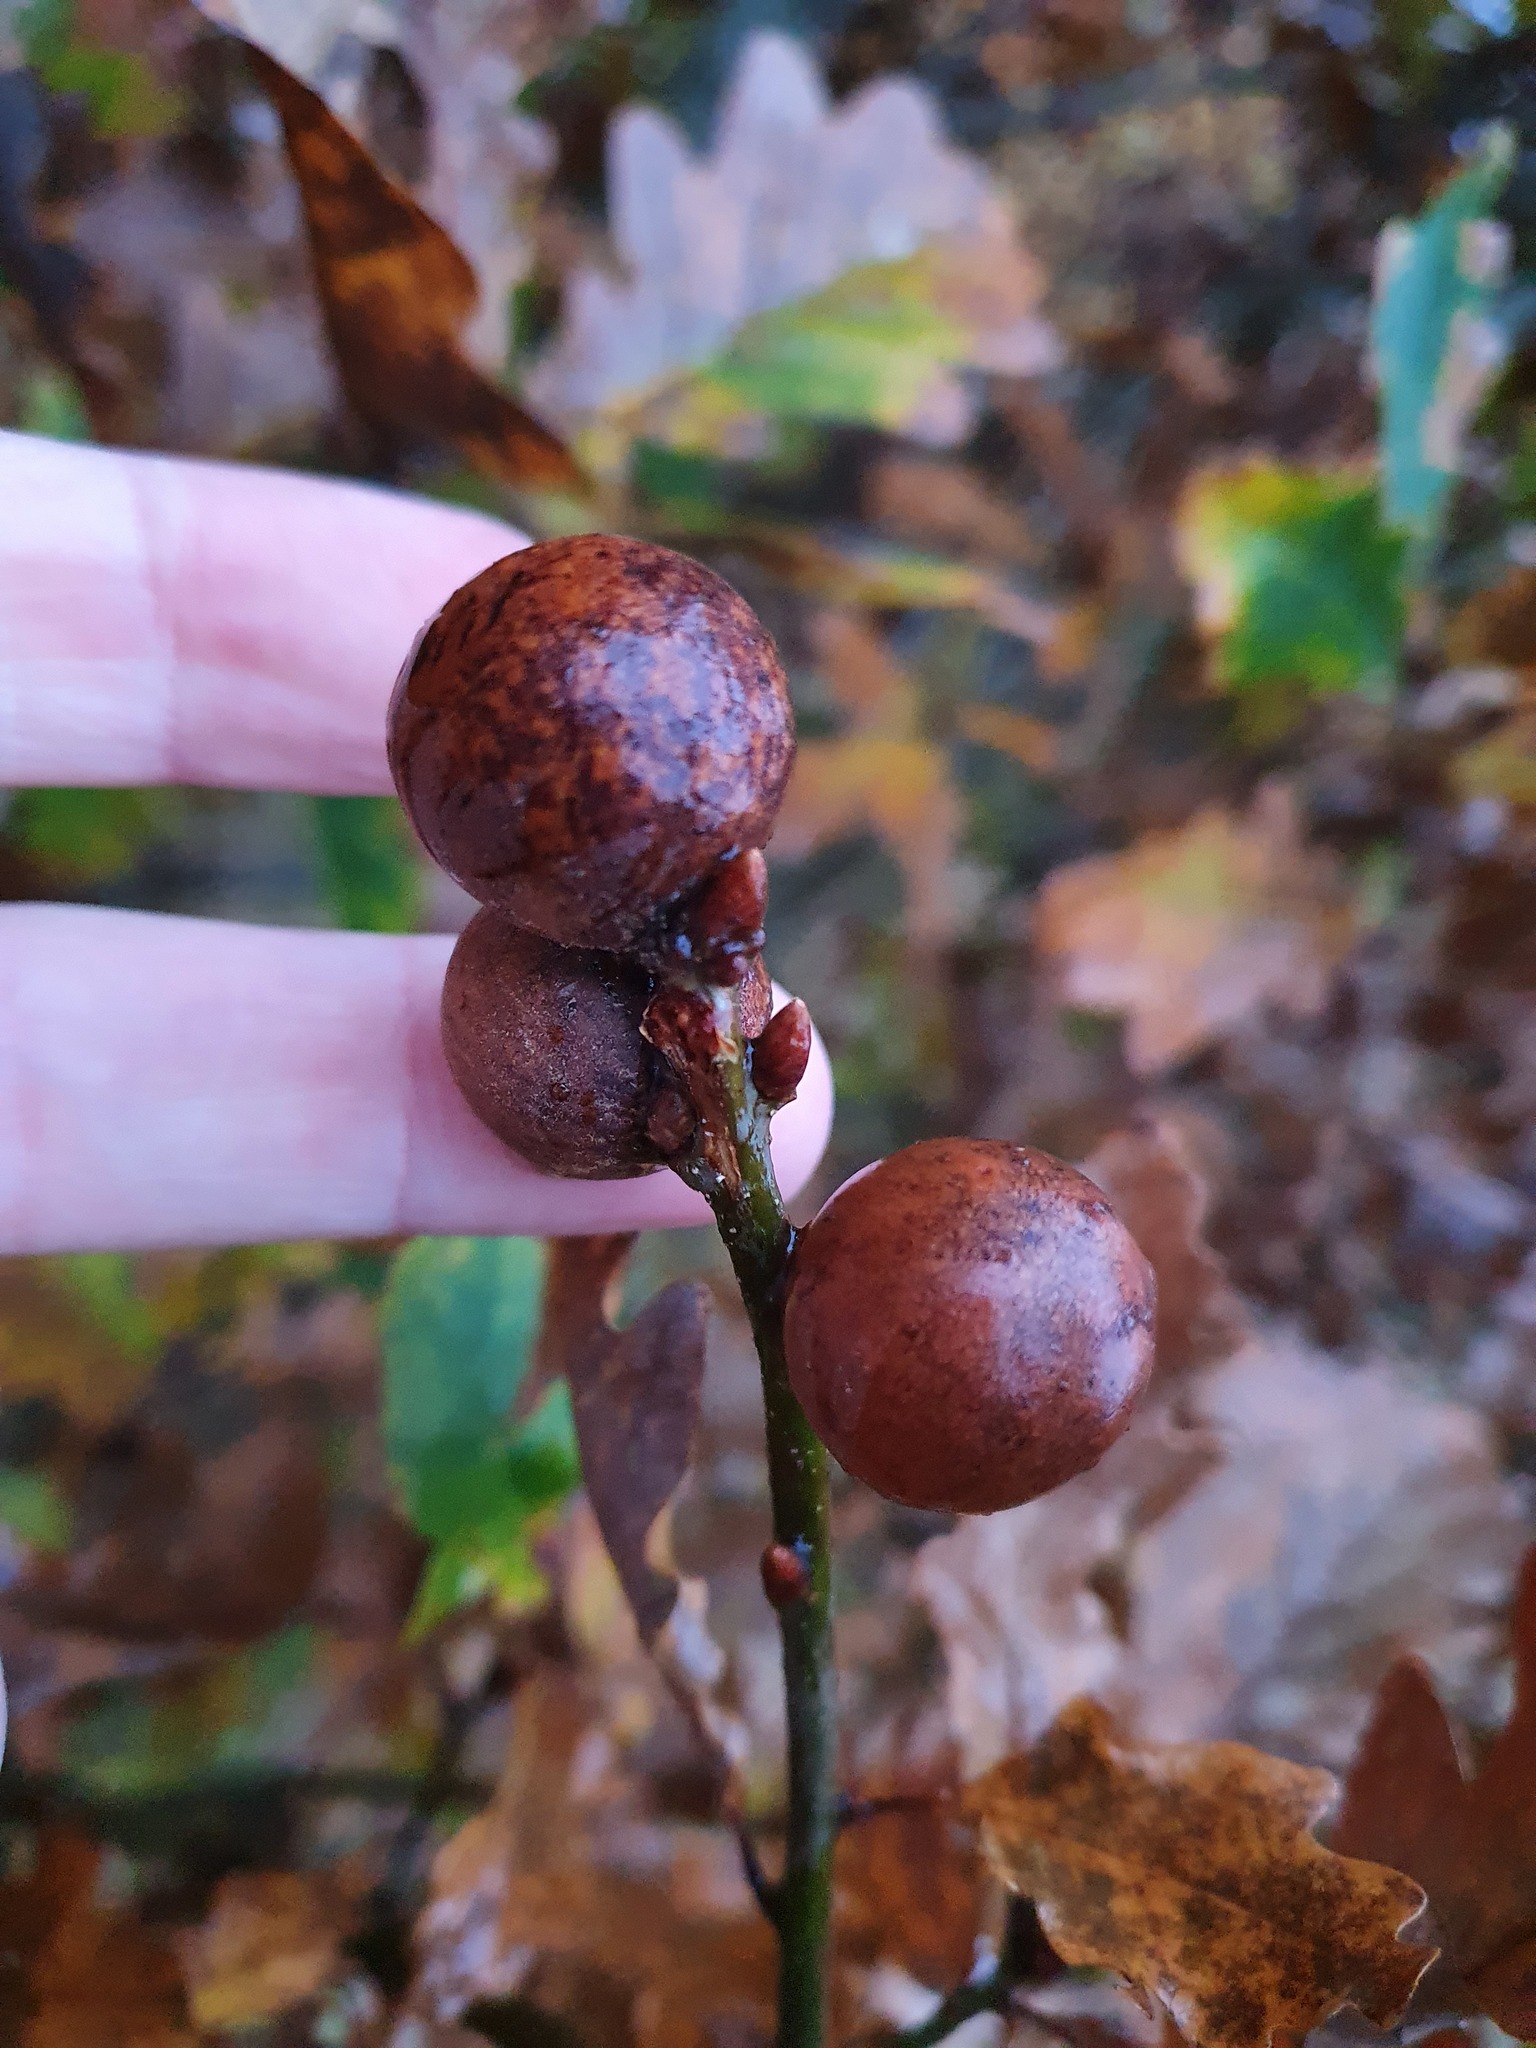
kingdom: Animalia
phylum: Arthropoda
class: Insecta
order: Hymenoptera
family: Cynipidae
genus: Andricus
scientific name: Andricus kollari
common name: Marble gall
